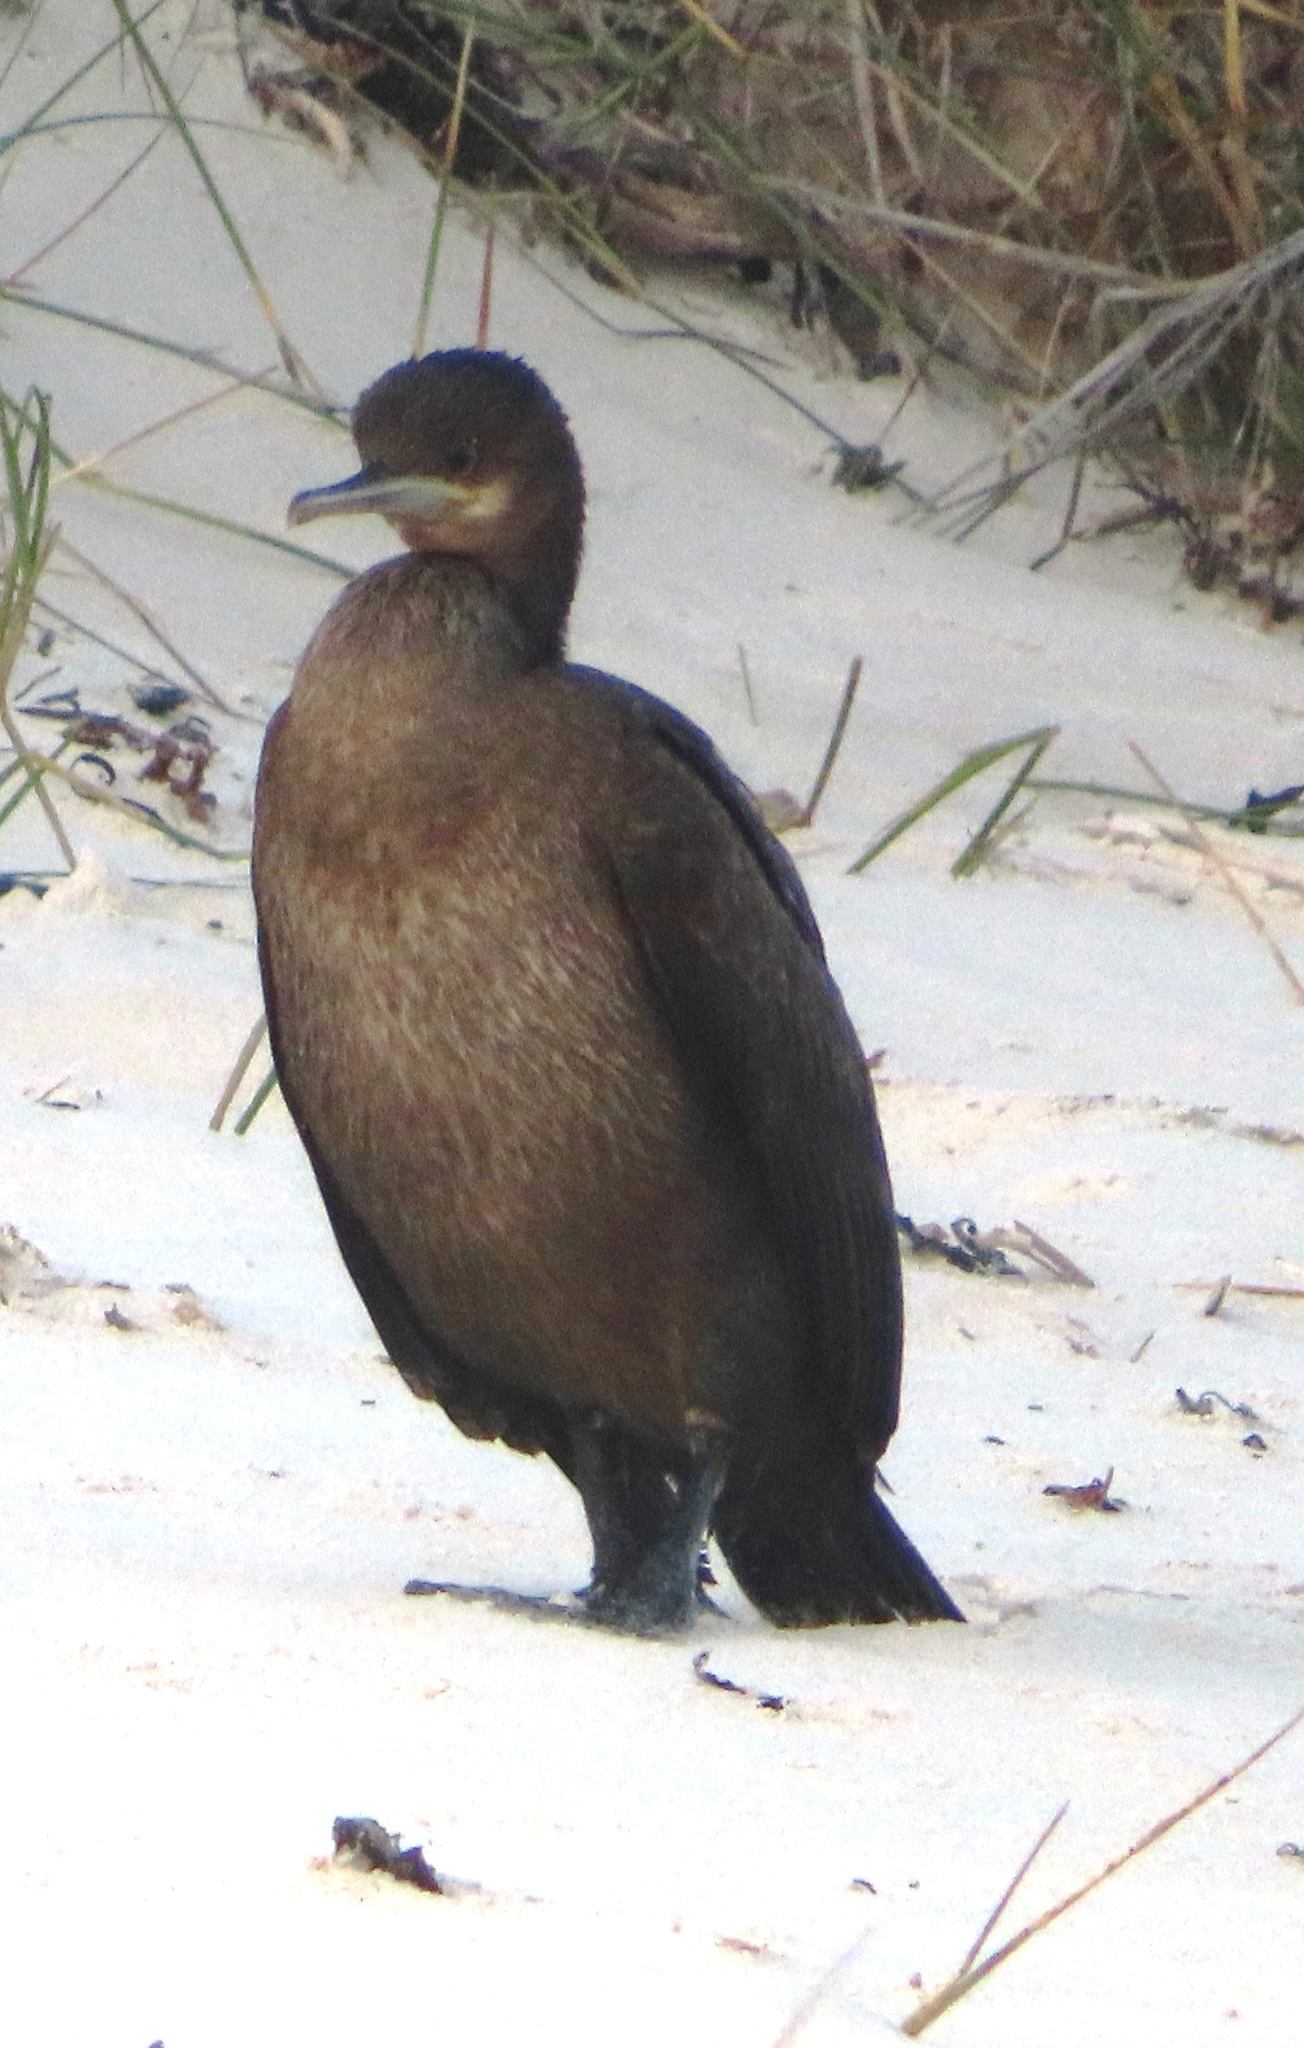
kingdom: Animalia
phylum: Chordata
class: Aves
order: Suliformes
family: Phalacrocoracidae
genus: Phalacrocorax
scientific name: Phalacrocorax capensis
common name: Cape cormorant
